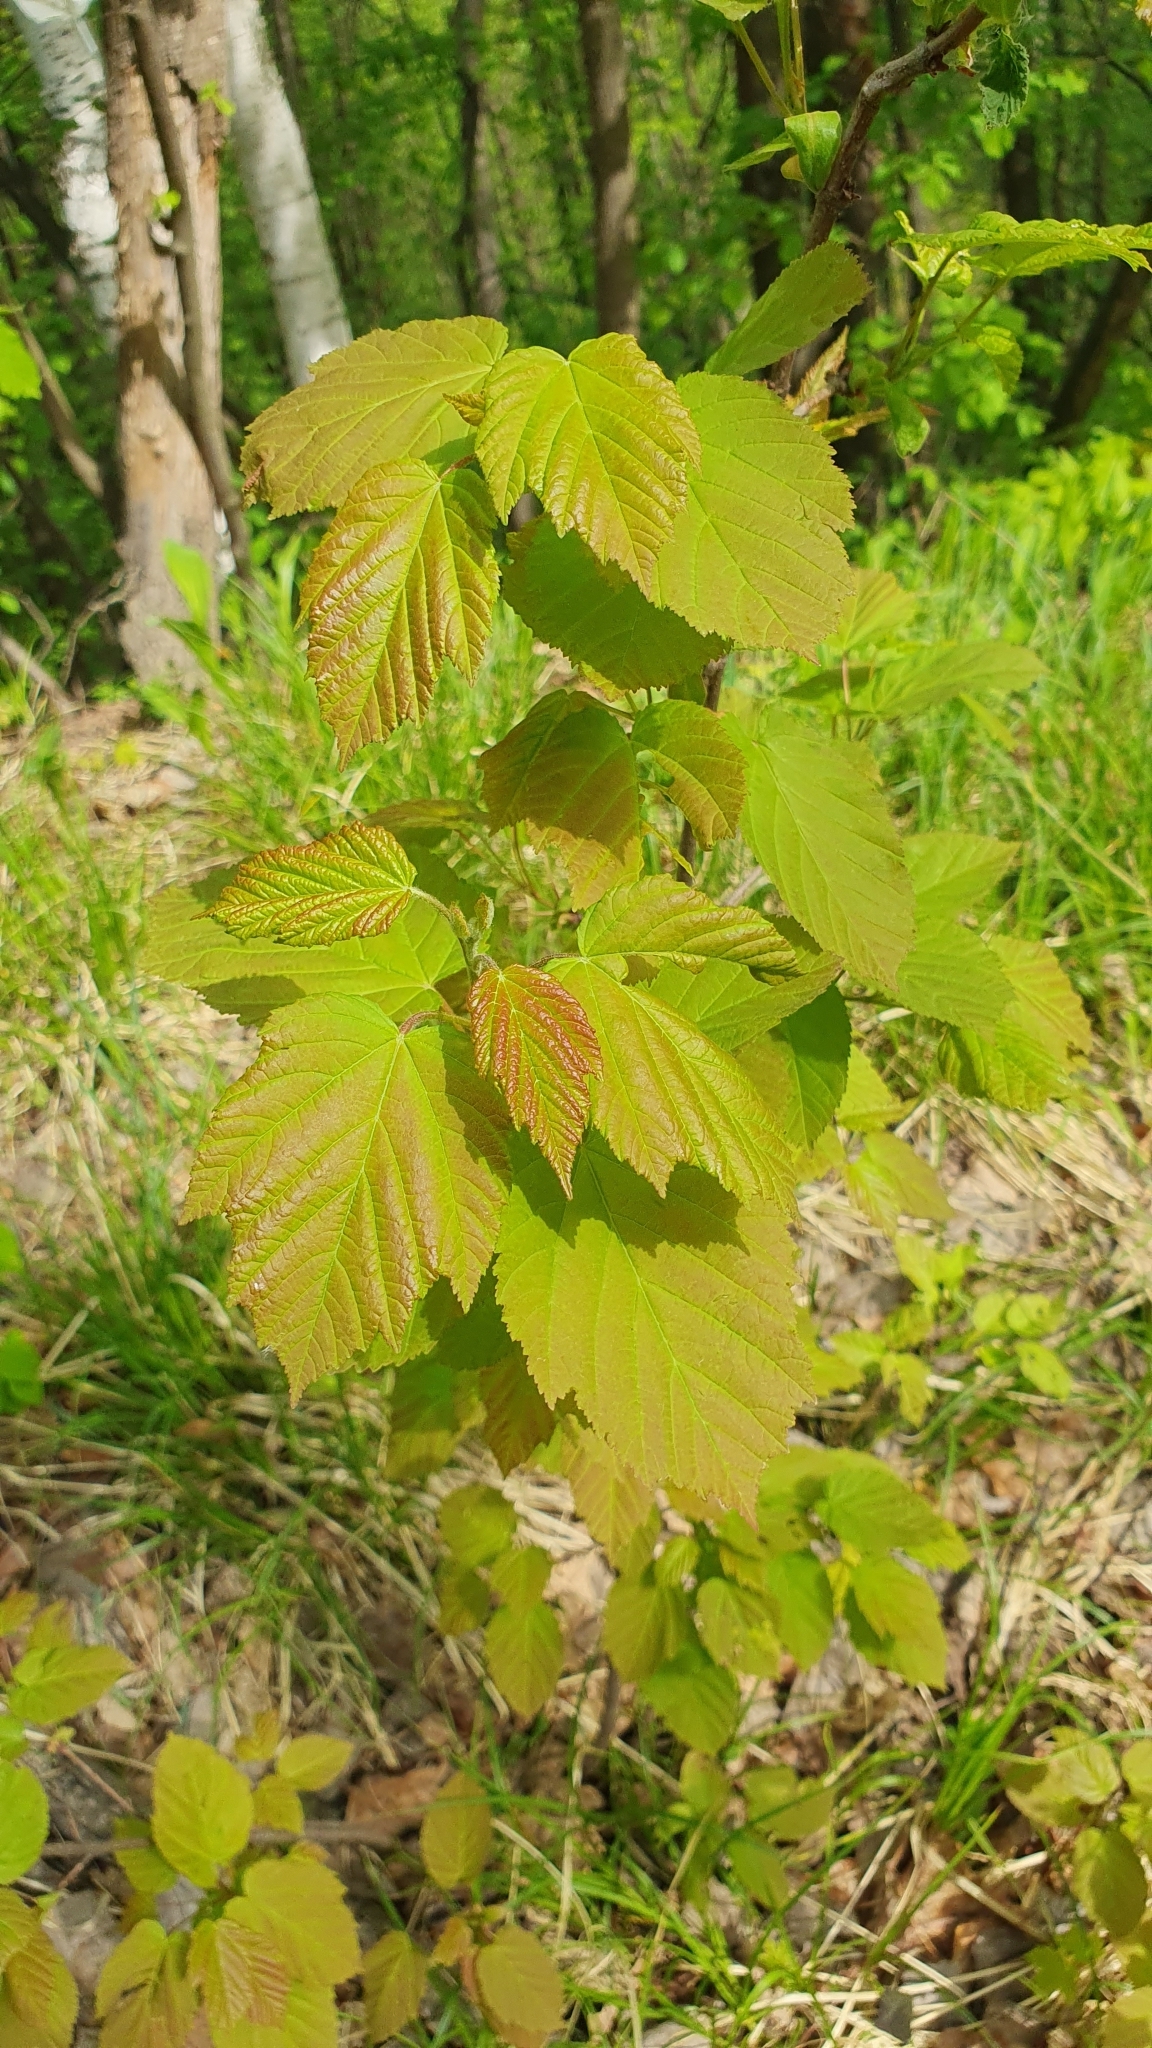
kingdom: Plantae
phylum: Tracheophyta
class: Magnoliopsida
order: Sapindales
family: Sapindaceae
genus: Acer
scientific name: Acer tataricum
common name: Tartar maple
